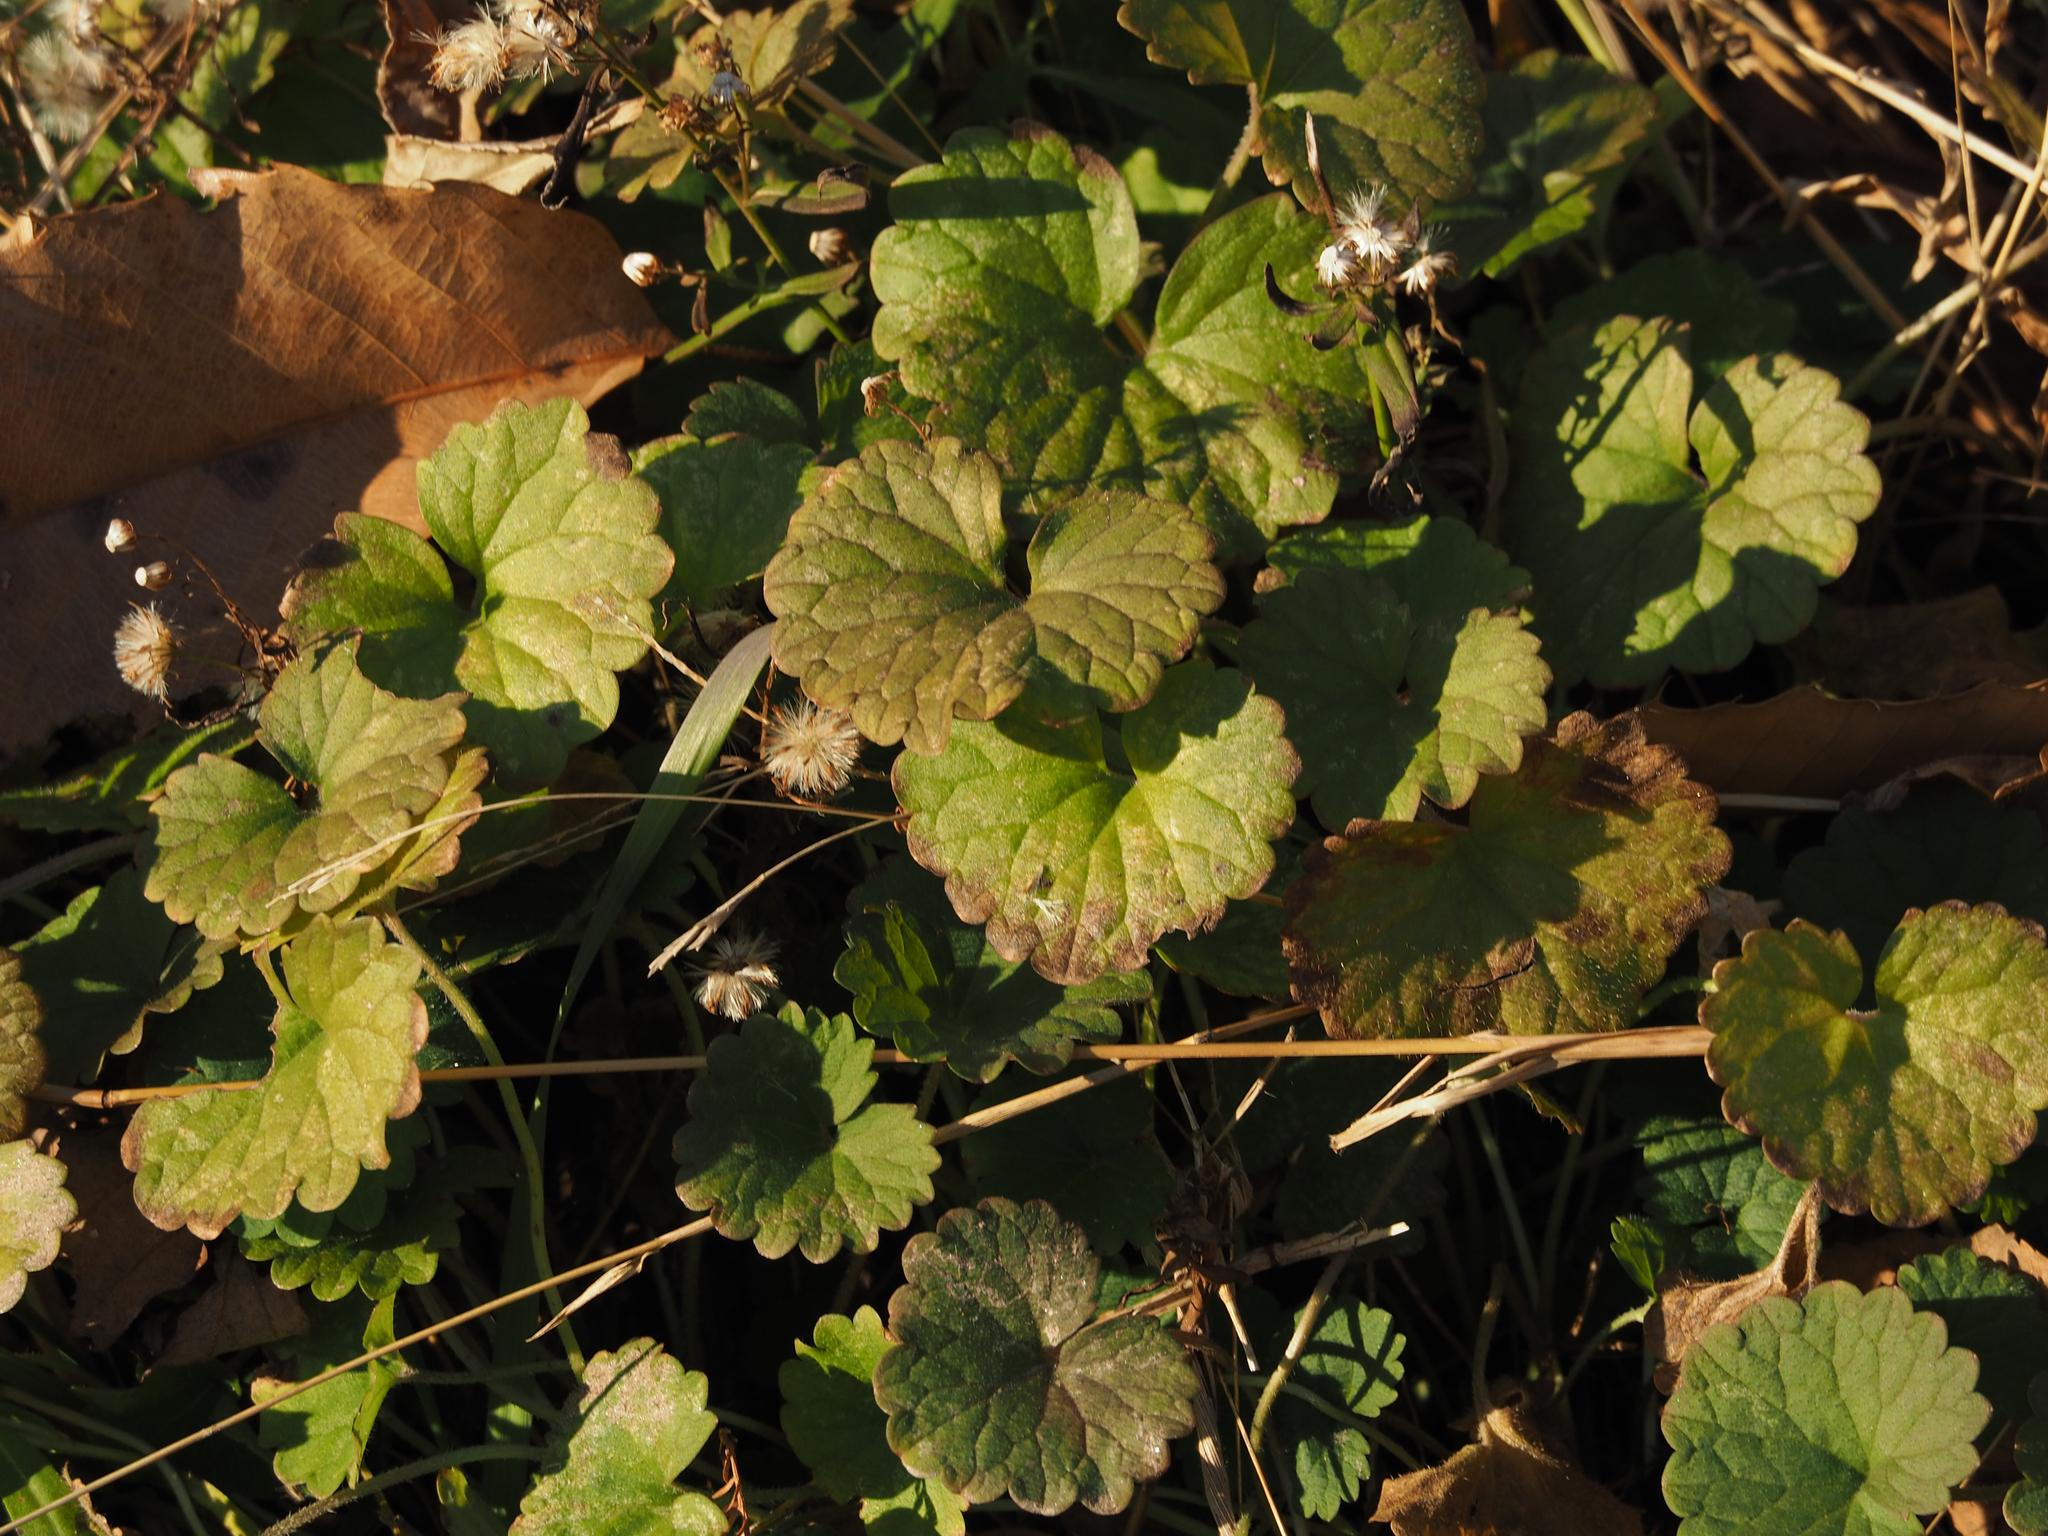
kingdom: Plantae
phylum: Tracheophyta
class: Magnoliopsida
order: Lamiales
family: Lamiaceae
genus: Glechoma
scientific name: Glechoma hederacea
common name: Ground ivy
